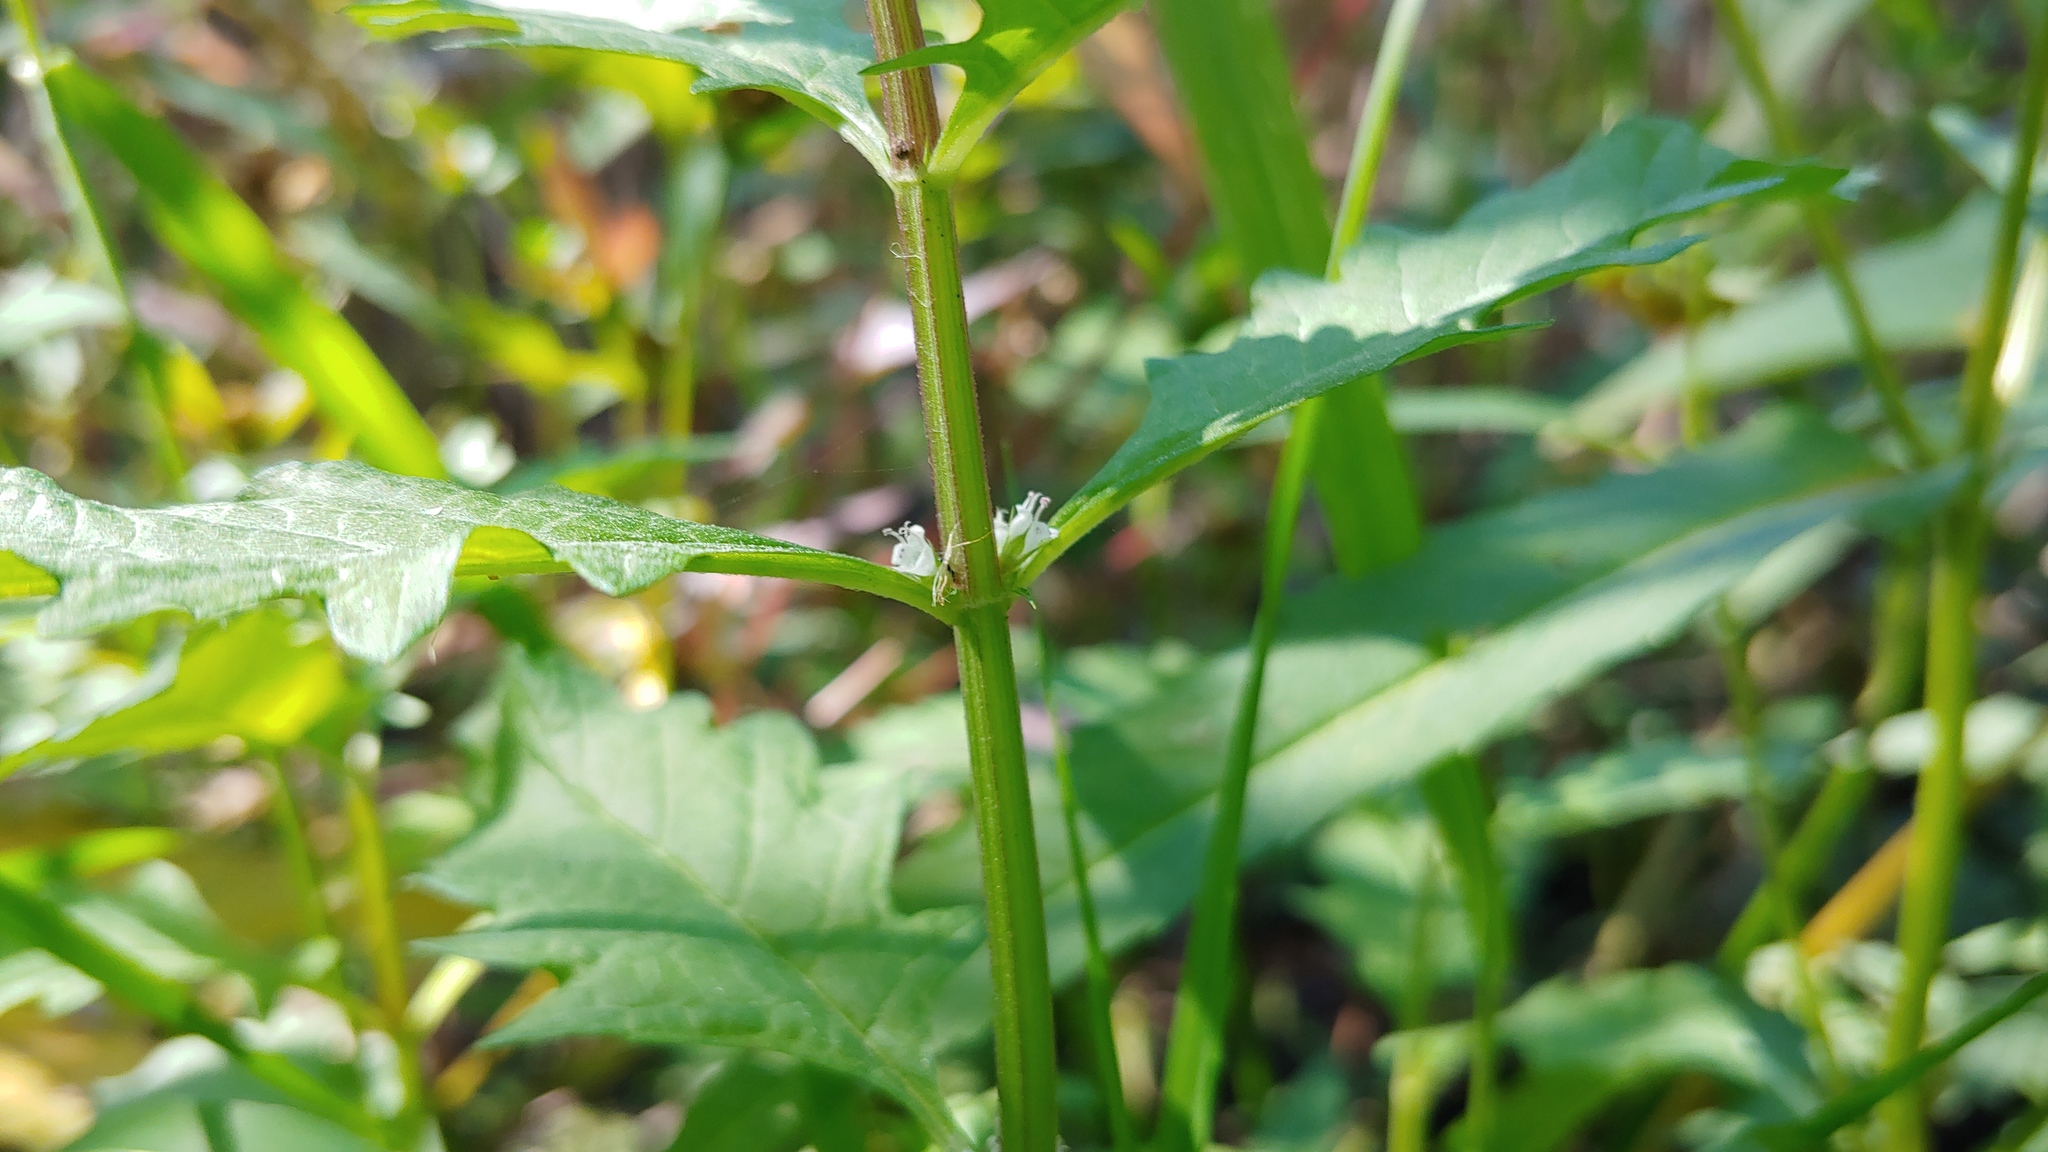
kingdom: Plantae
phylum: Tracheophyta
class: Magnoliopsida
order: Lamiales
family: Lamiaceae
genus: Lycopus
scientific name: Lycopus europaeus
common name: European bugleweed
